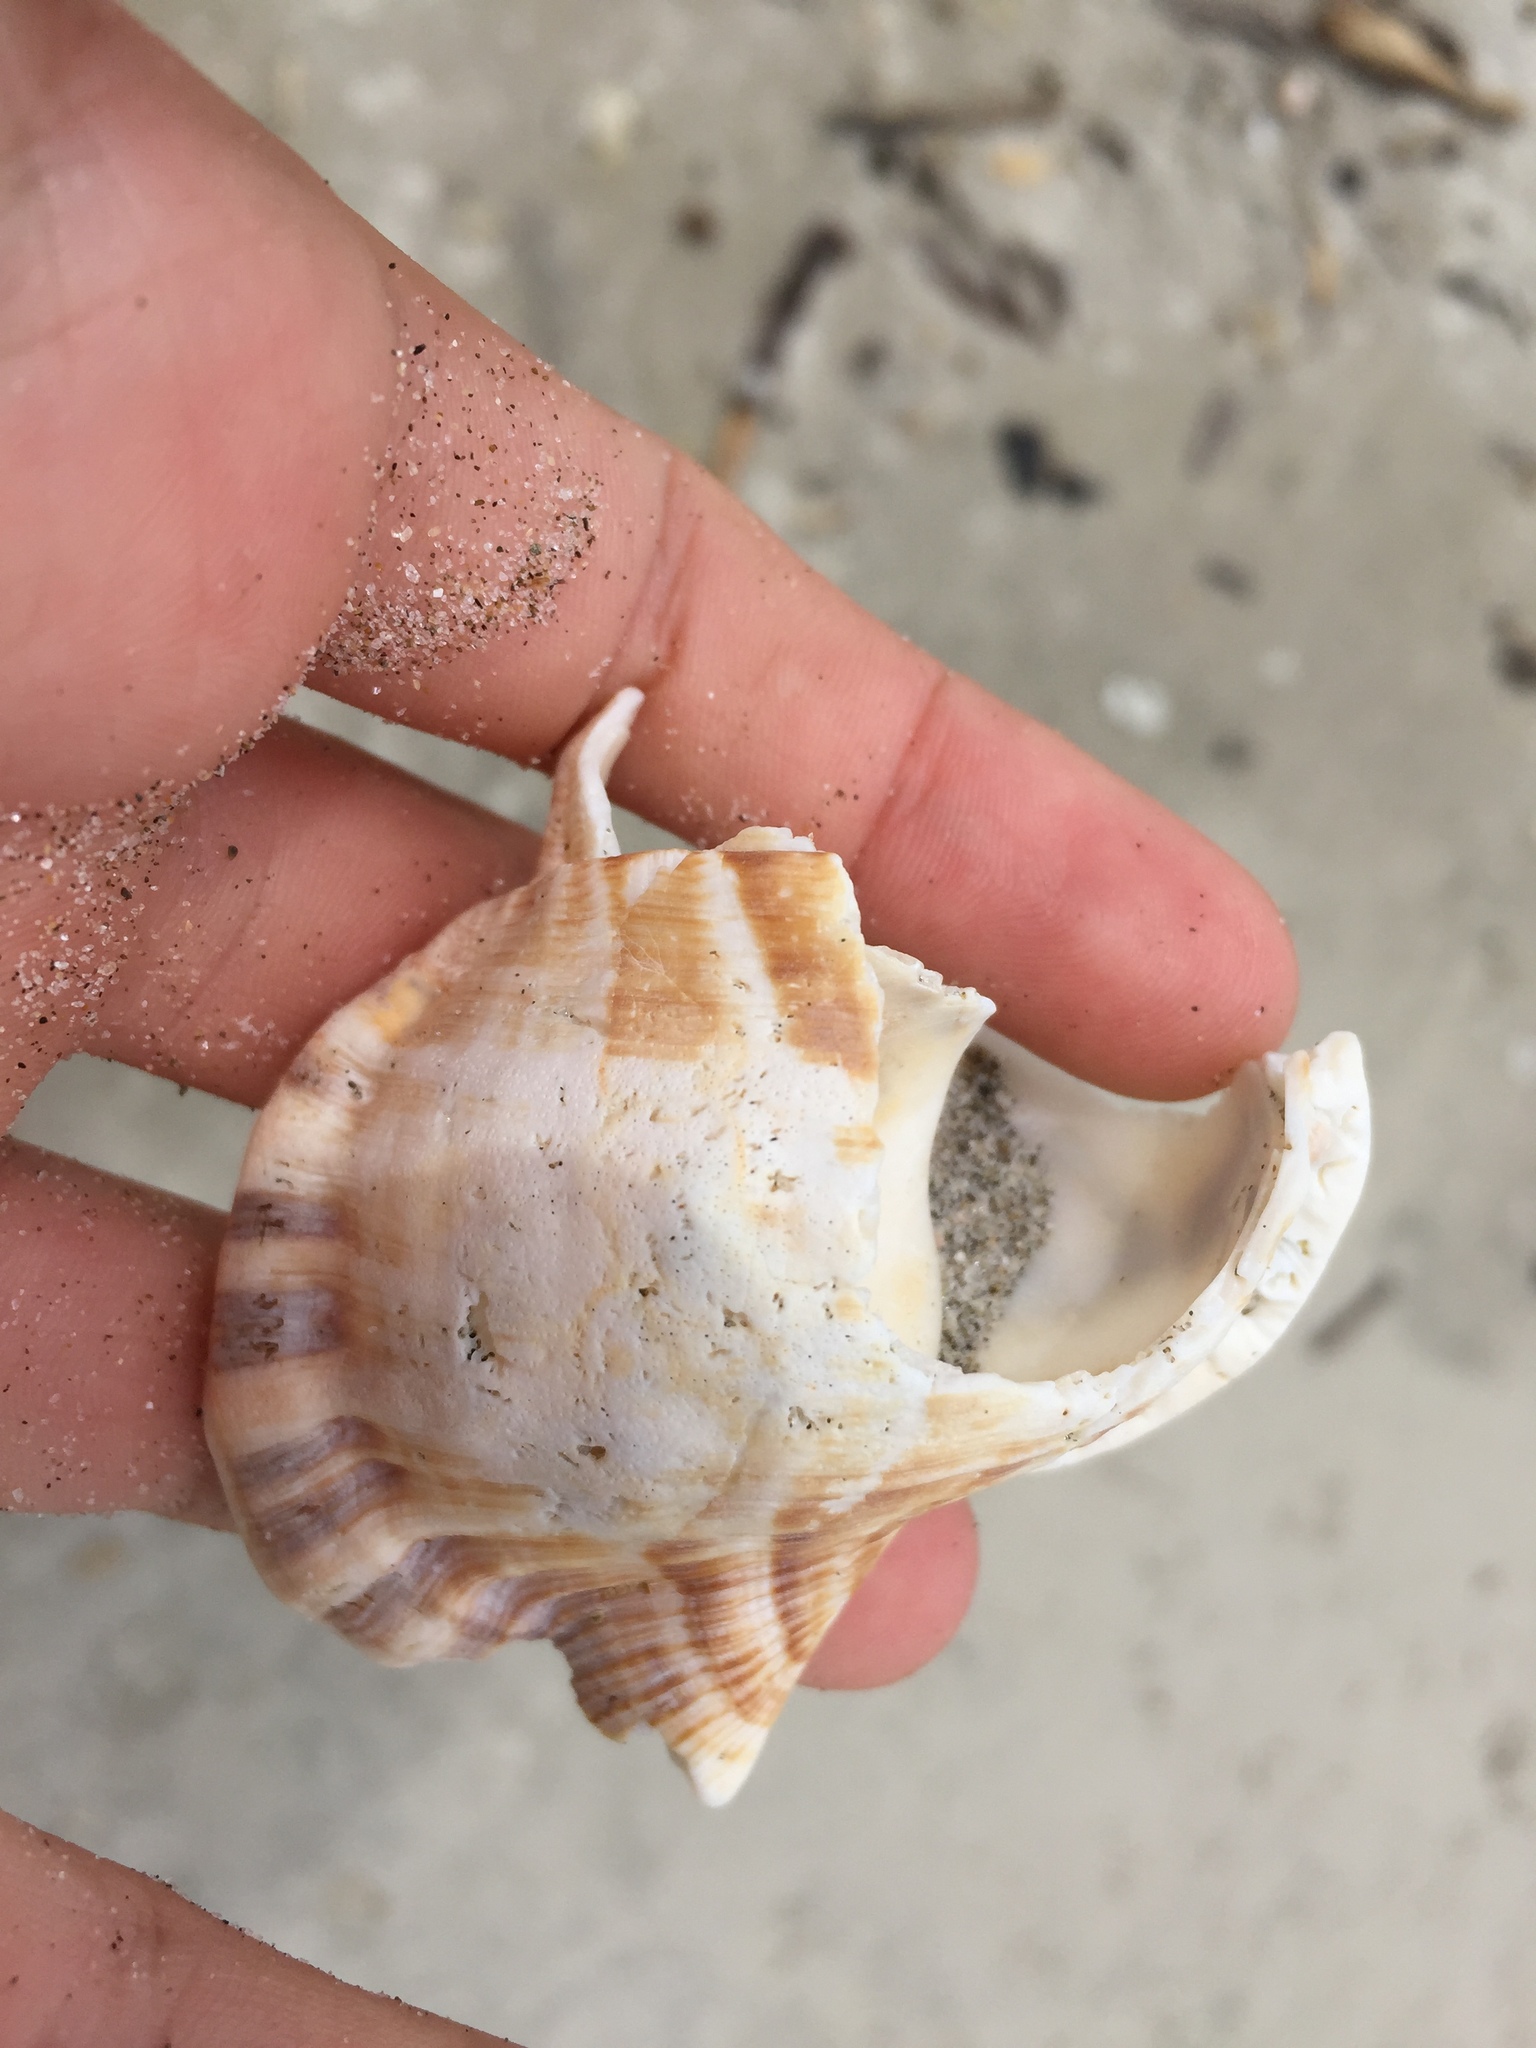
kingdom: Animalia
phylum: Mollusca
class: Gastropoda
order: Littorinimorpha
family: Ranellidae
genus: Ranella
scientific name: Ranella australasia
